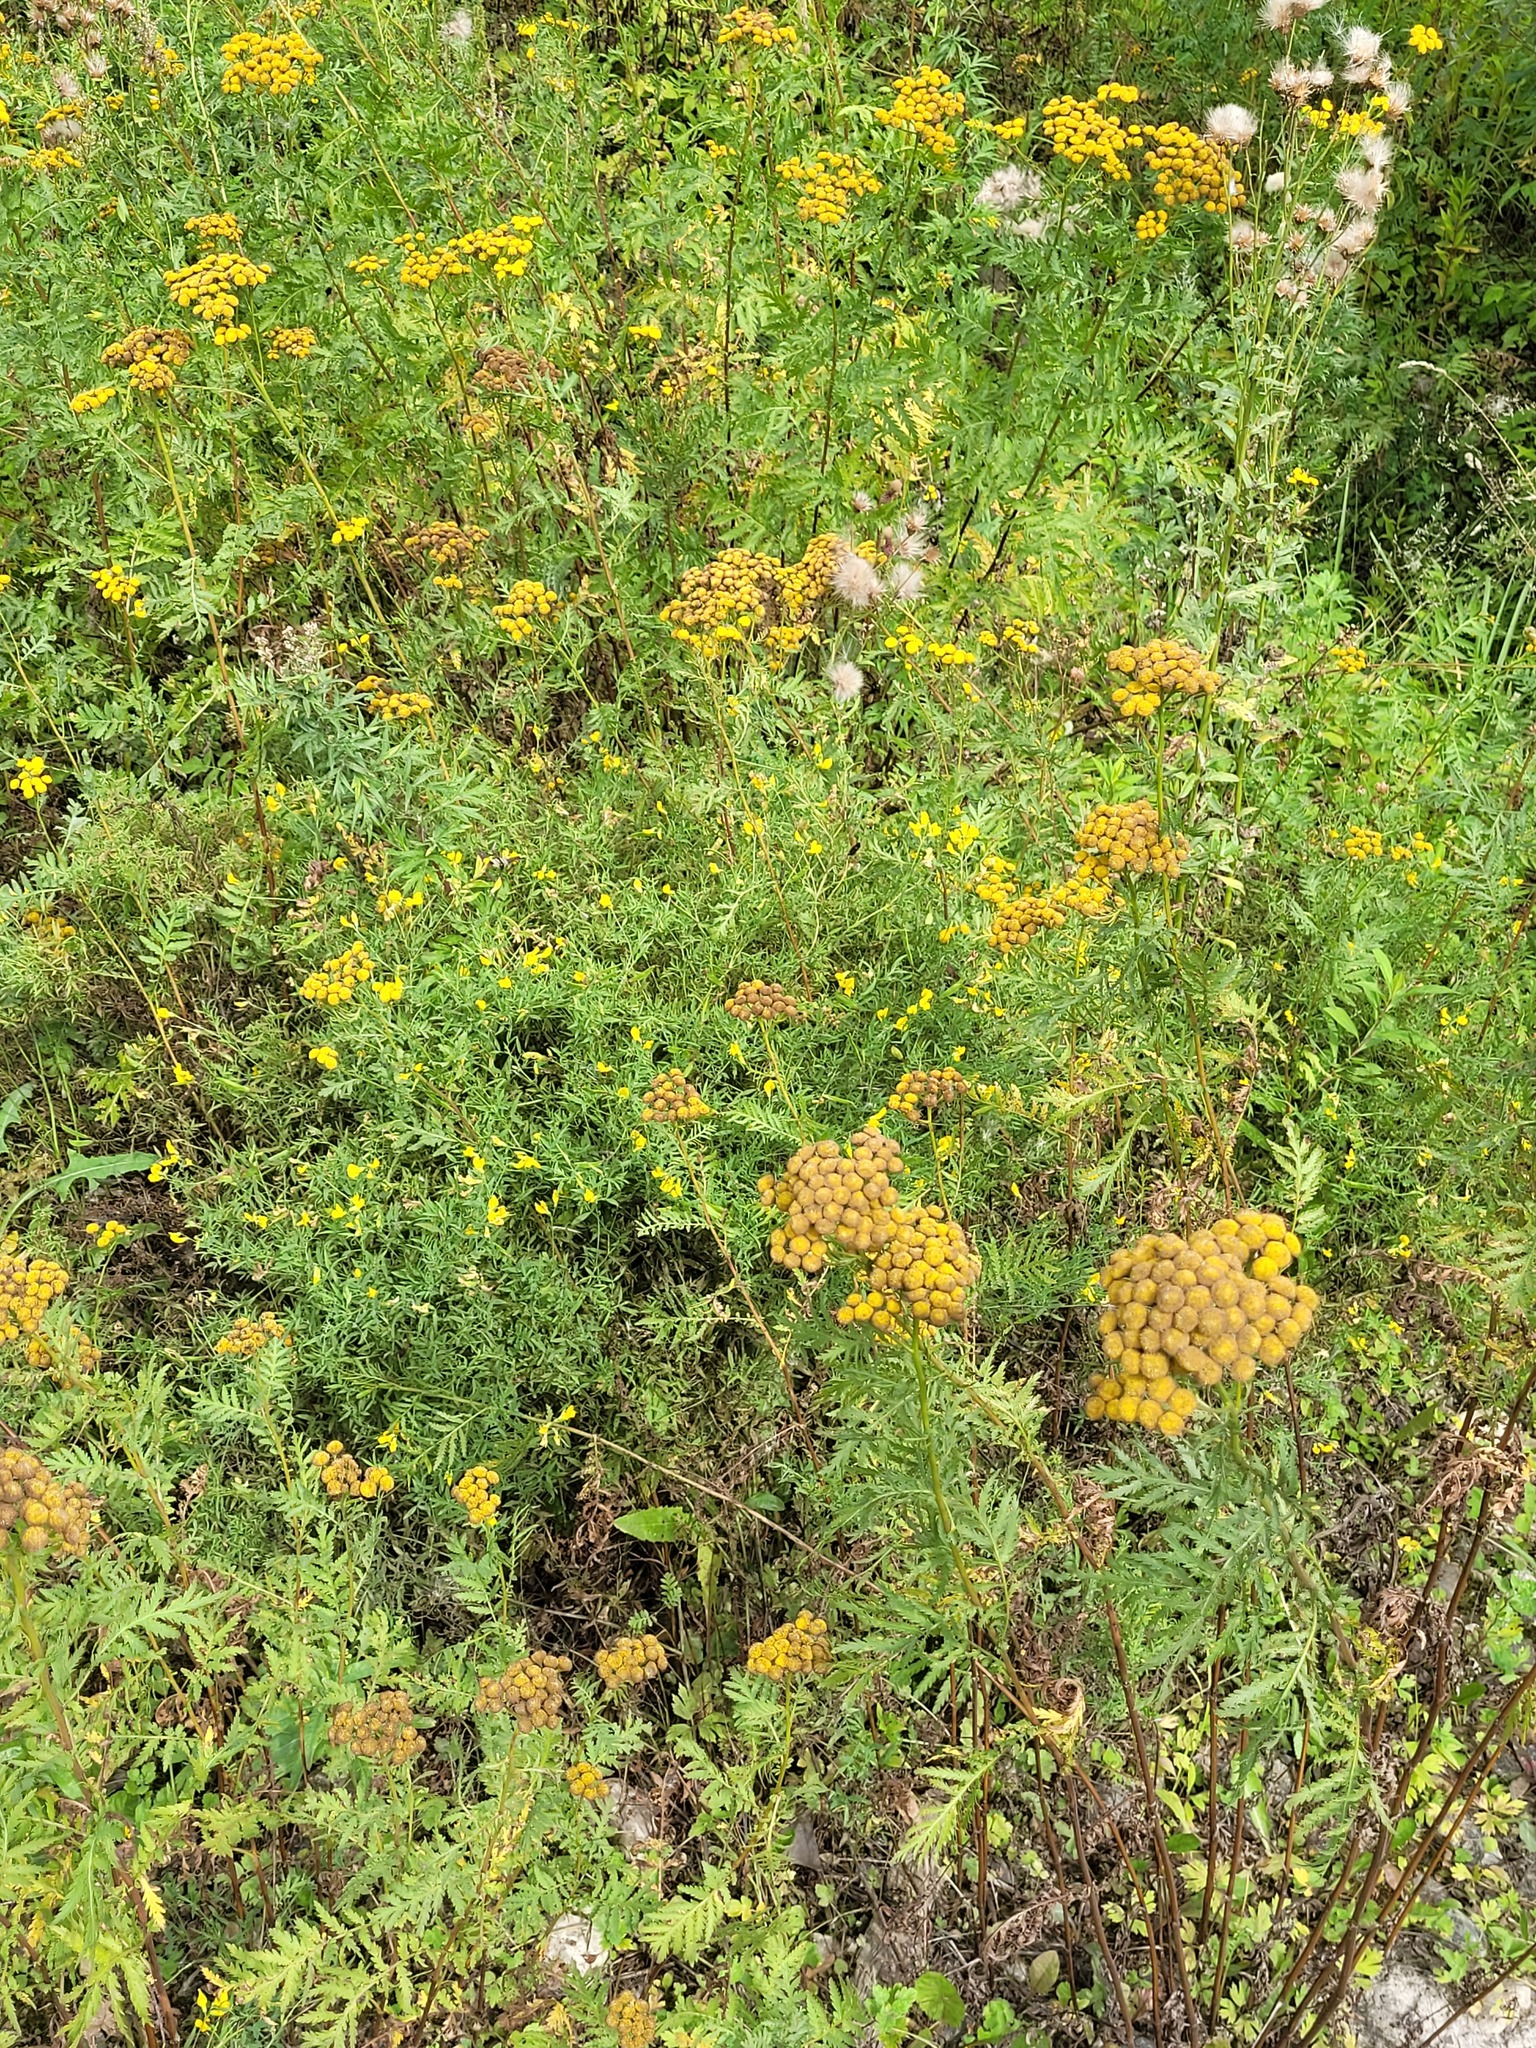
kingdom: Plantae
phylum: Tracheophyta
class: Magnoliopsida
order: Fabales
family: Fabaceae
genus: Lathyrus
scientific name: Lathyrus pratensis
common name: Meadow vetchling
